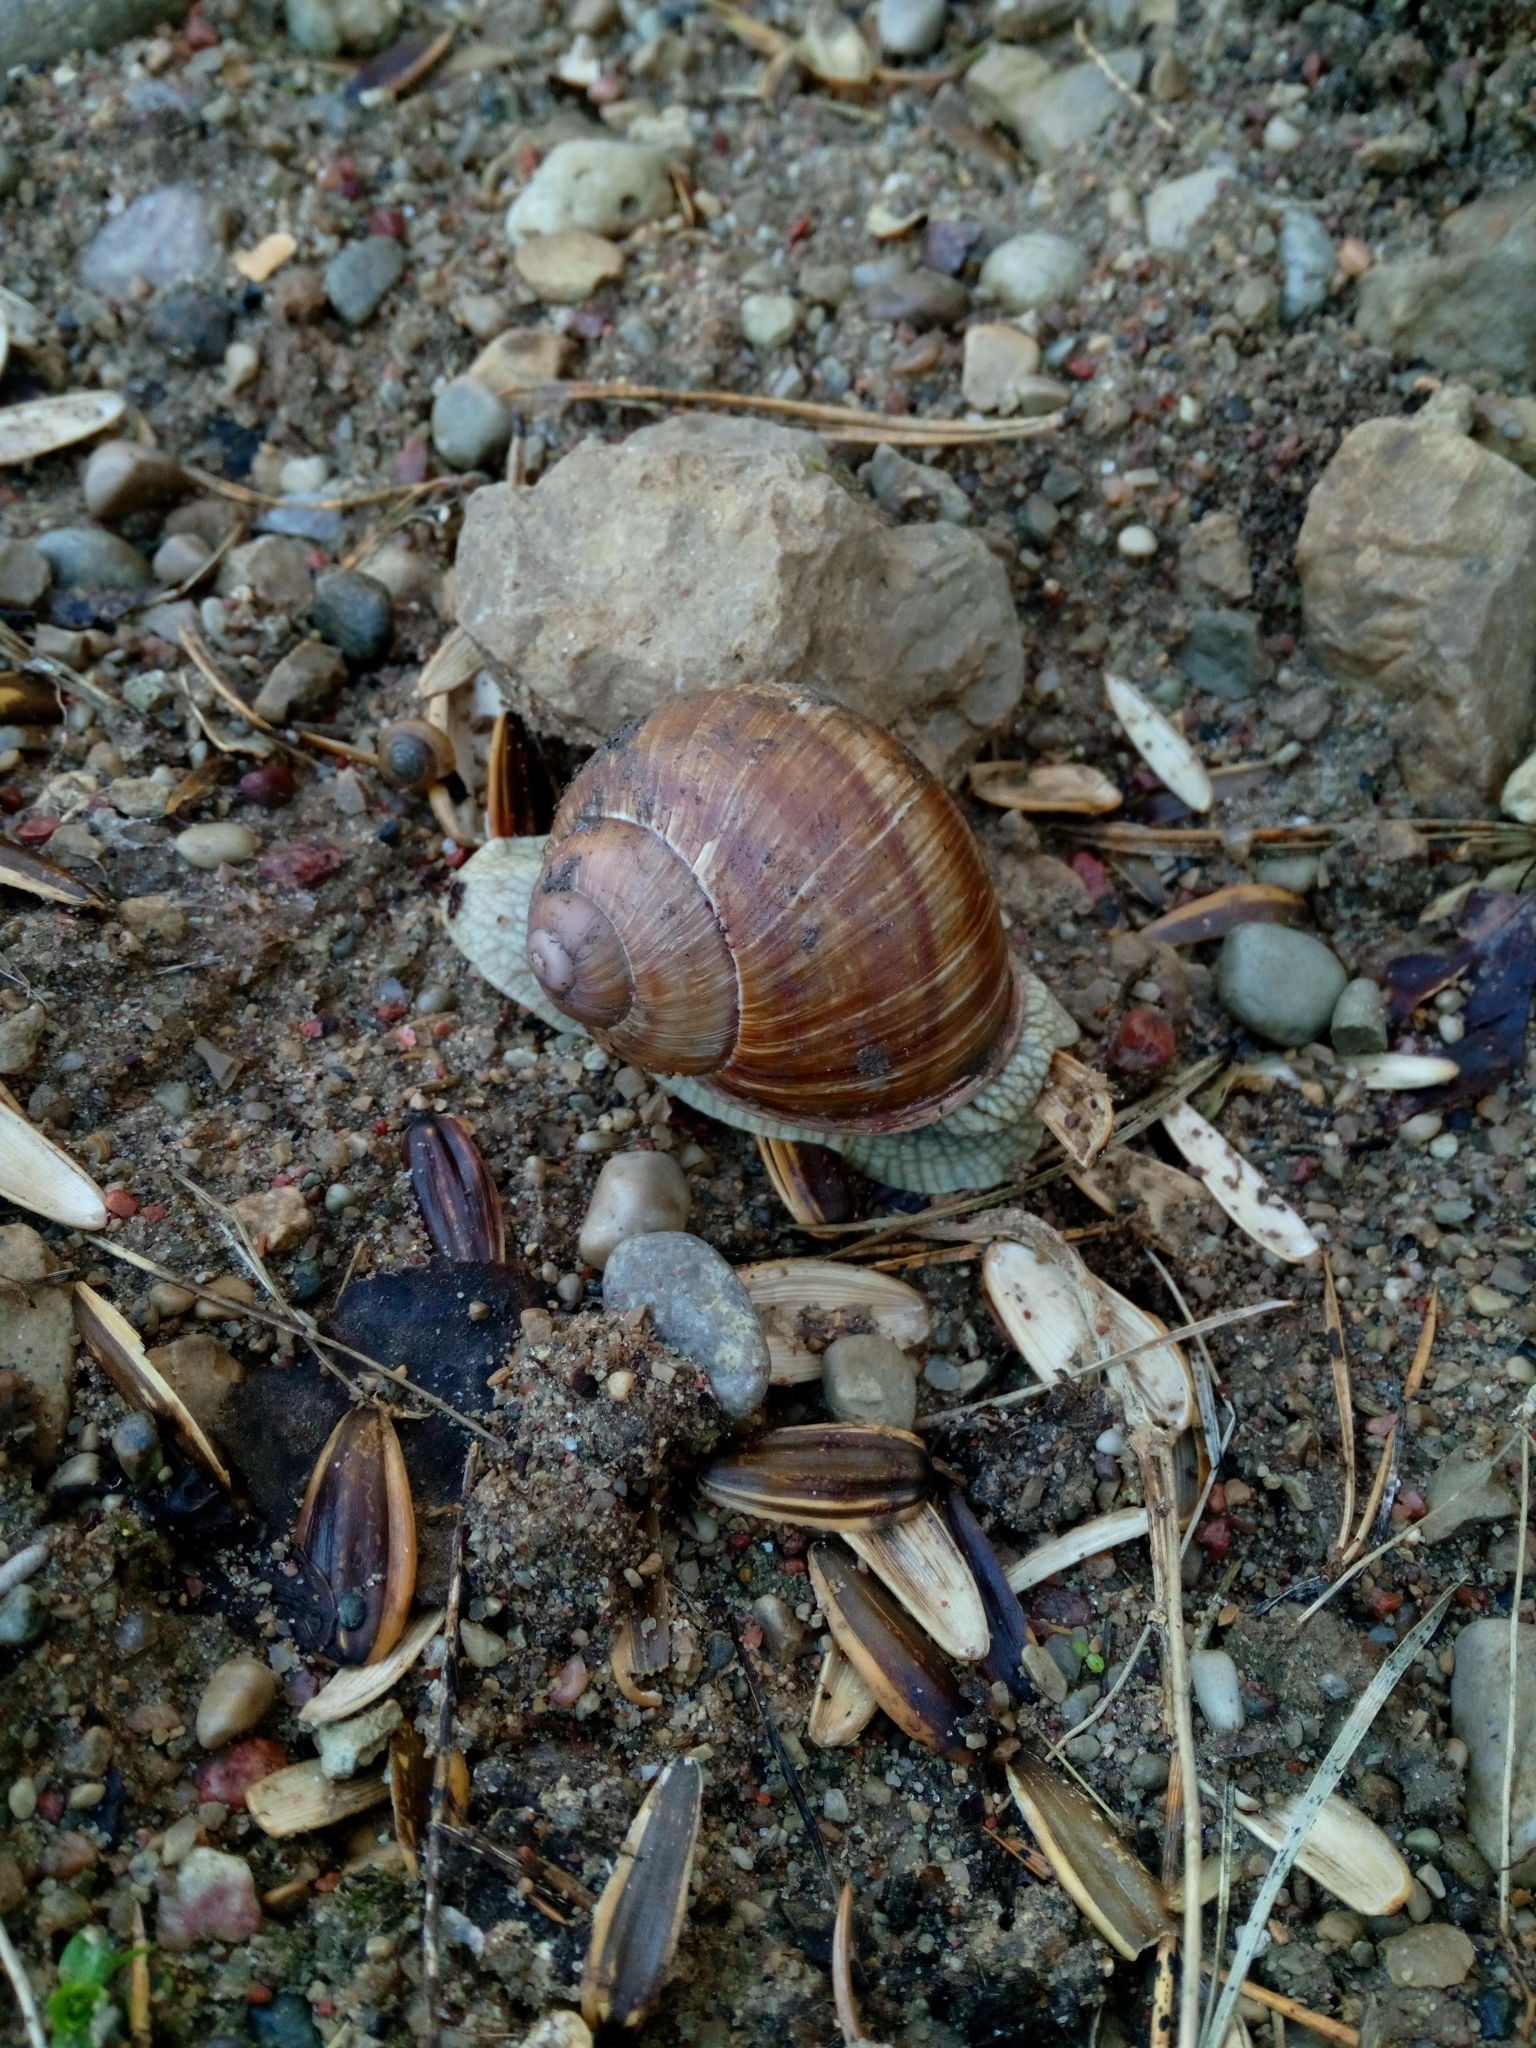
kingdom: Animalia
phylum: Mollusca
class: Gastropoda
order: Stylommatophora
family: Helicidae
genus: Helix
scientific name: Helix pomatia
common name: Roman snail
